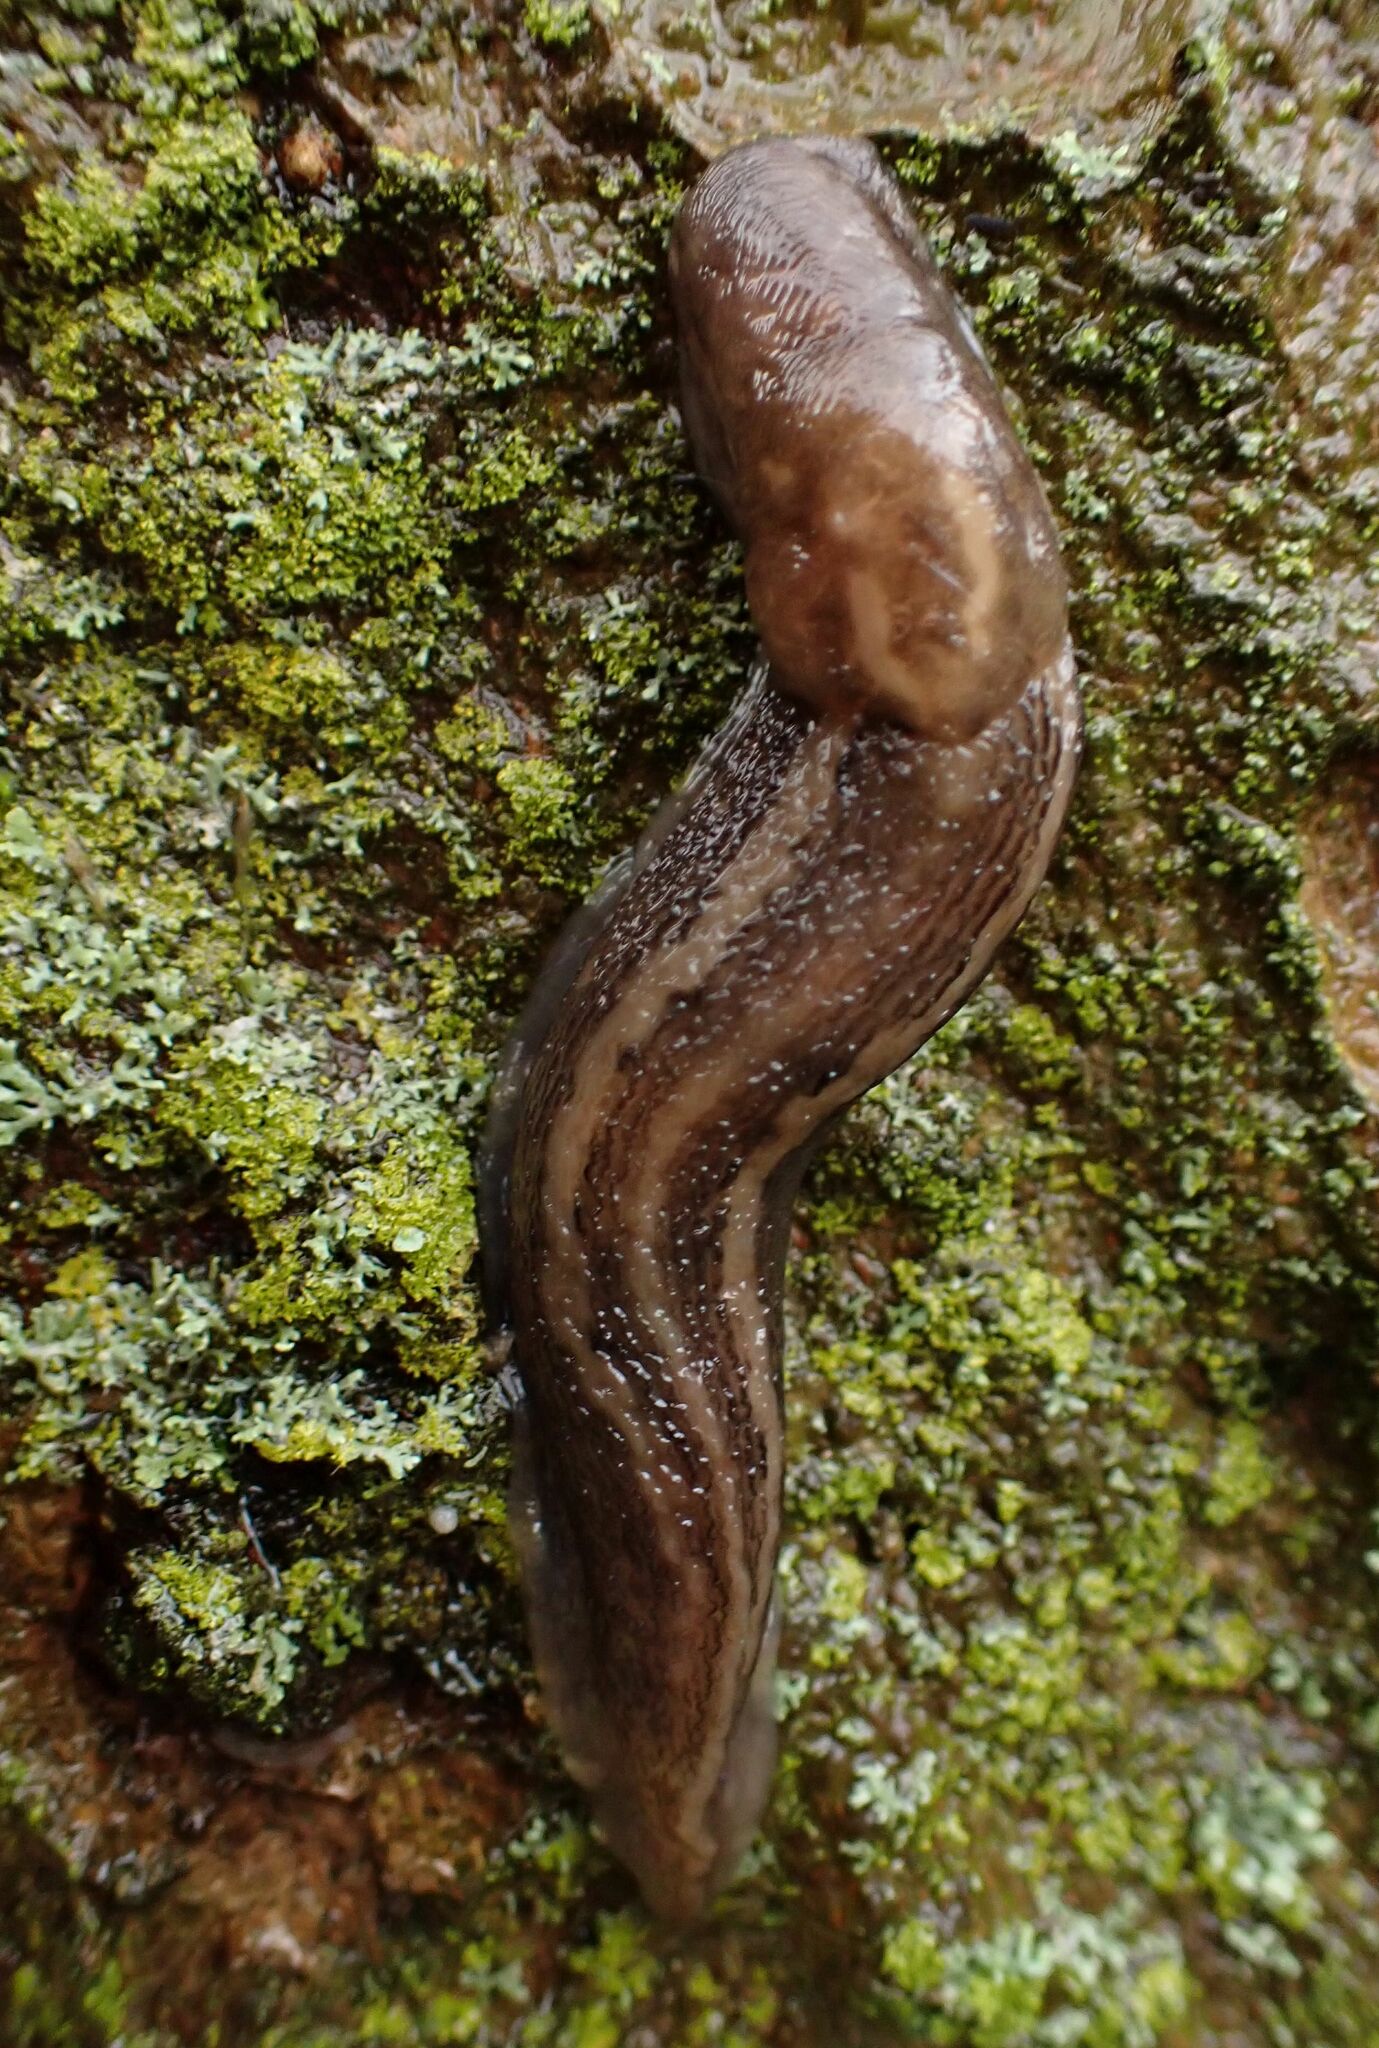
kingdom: Animalia
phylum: Mollusca
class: Gastropoda
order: Stylommatophora
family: Limacidae
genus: Limax
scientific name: Limax maximus
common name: Great grey slug
